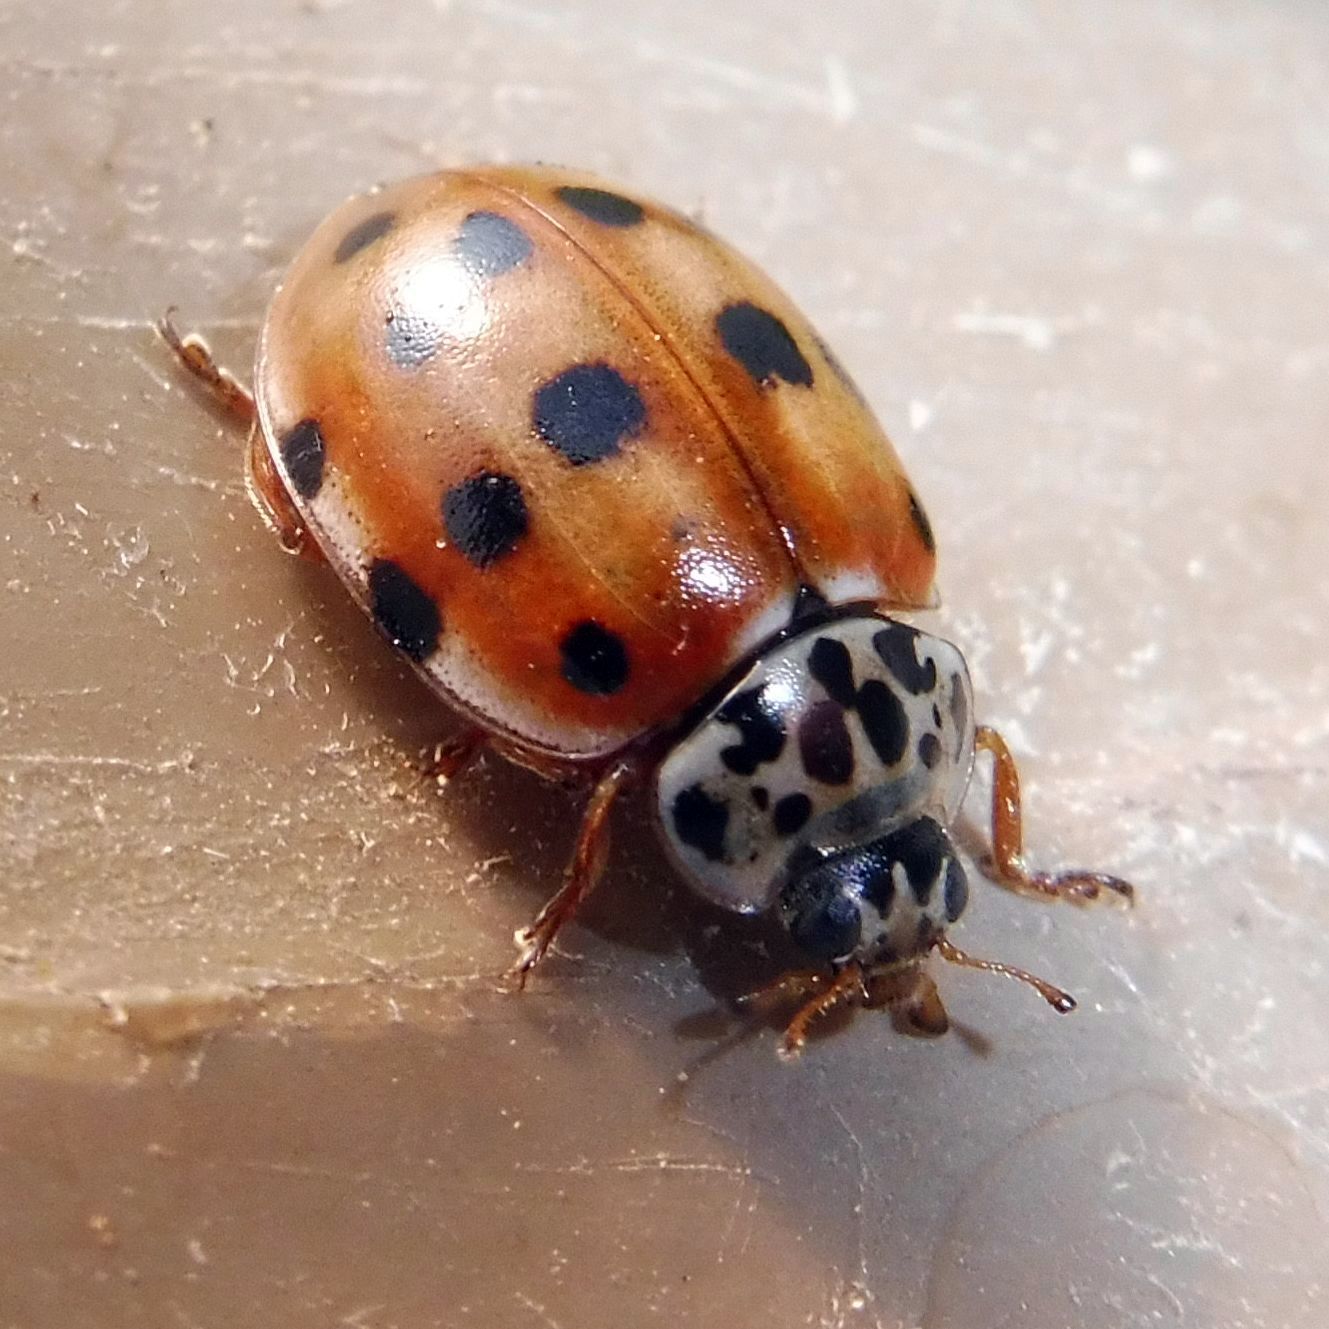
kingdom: Animalia
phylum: Arthropoda
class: Insecta
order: Coleoptera
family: Coccinellidae
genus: Harmonia
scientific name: Harmonia quadripunctata
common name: Cream-streaked ladybird
